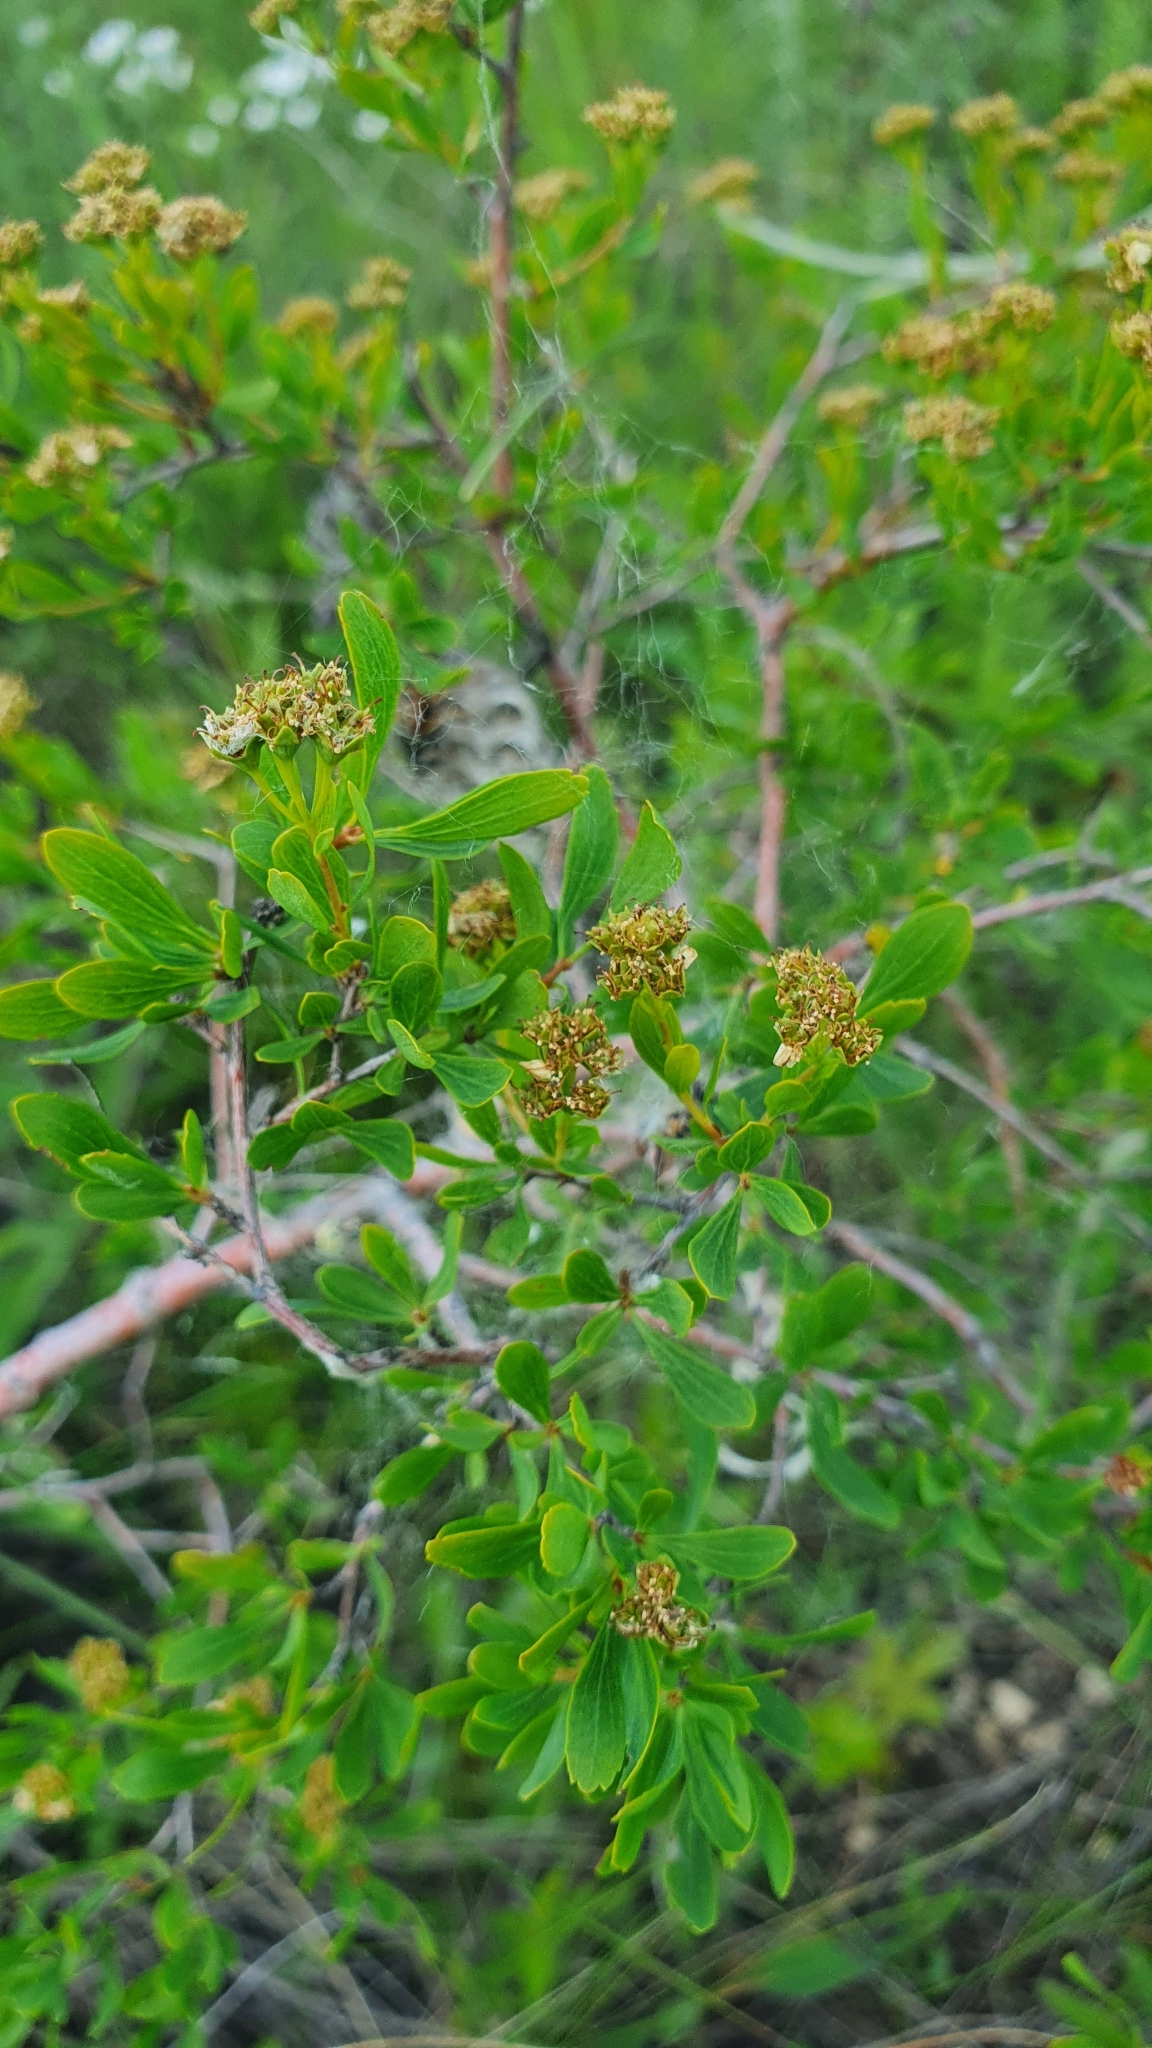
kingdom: Plantae
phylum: Tracheophyta
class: Magnoliopsida
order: Rosales
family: Rosaceae
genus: Spiraea
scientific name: Spiraea crenata
